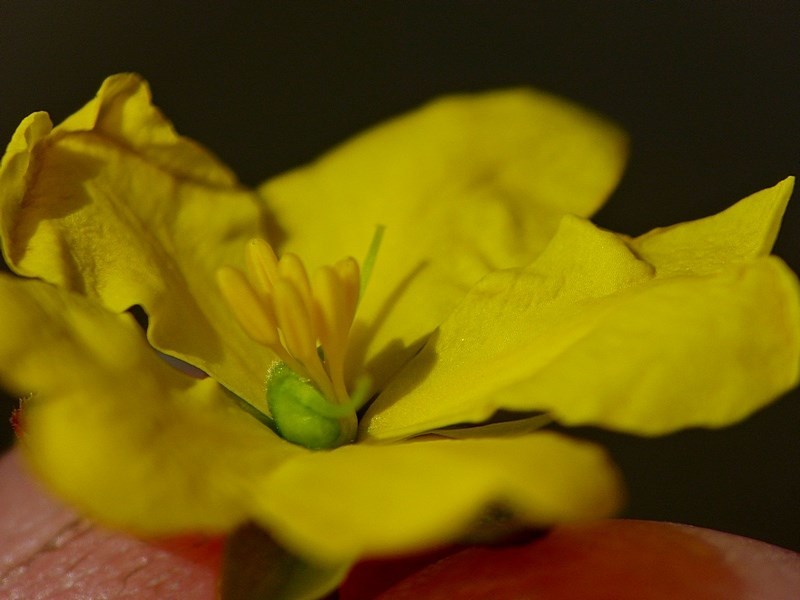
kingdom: Plantae
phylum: Tracheophyta
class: Magnoliopsida
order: Dilleniales
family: Dilleniaceae
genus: Hibbertia
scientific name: Hibbertia acicularis
